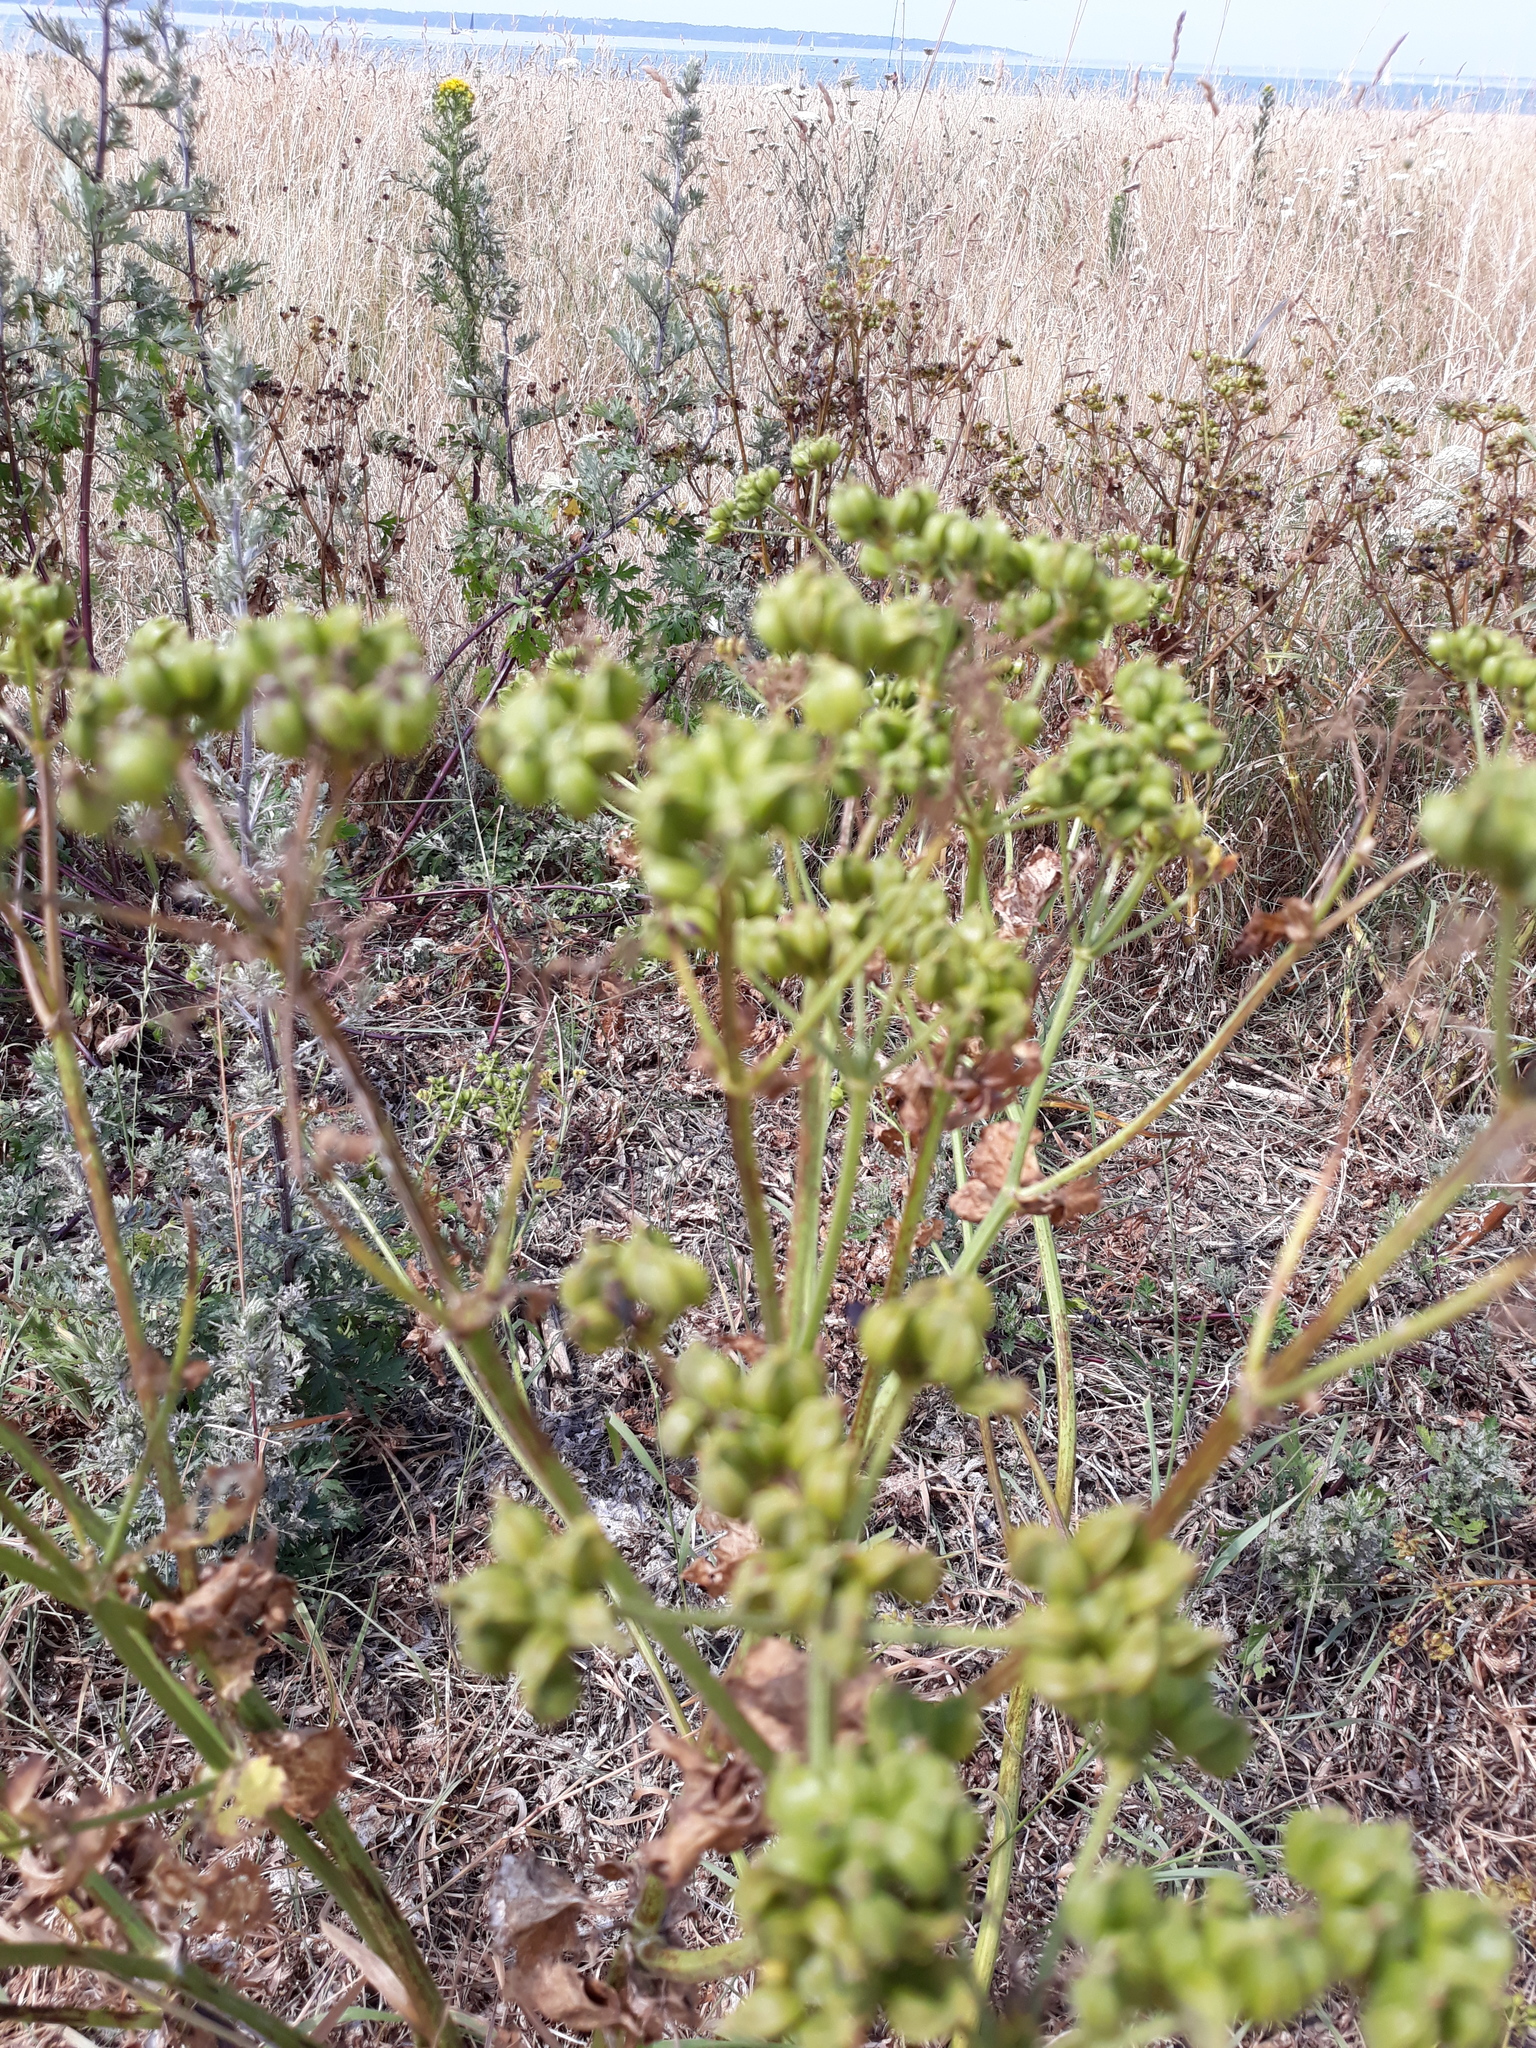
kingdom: Plantae
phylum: Tracheophyta
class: Magnoliopsida
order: Apiales
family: Apiaceae
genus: Smyrnium
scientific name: Smyrnium olusatrum
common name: Alexanders
